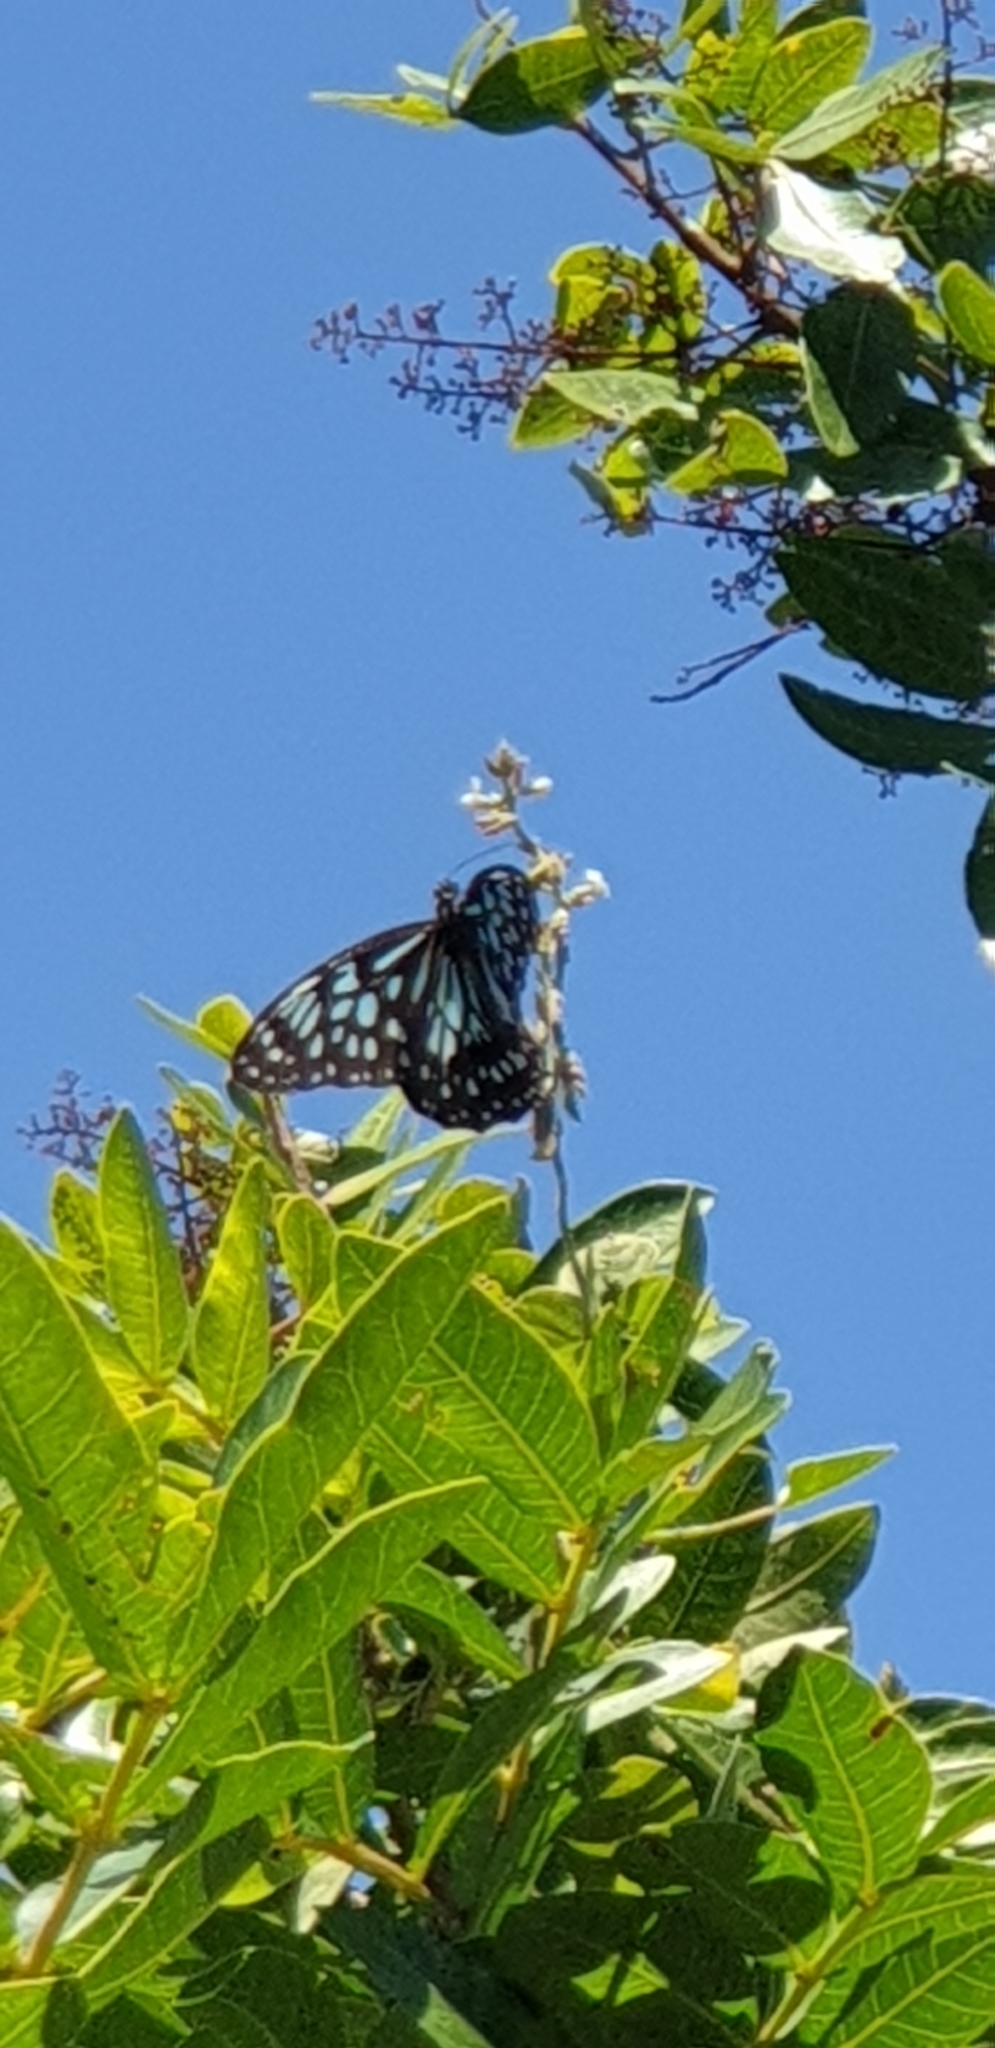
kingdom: Animalia
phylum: Arthropoda
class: Insecta
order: Lepidoptera
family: Nymphalidae
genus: Tirumala
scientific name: Tirumala hamata
